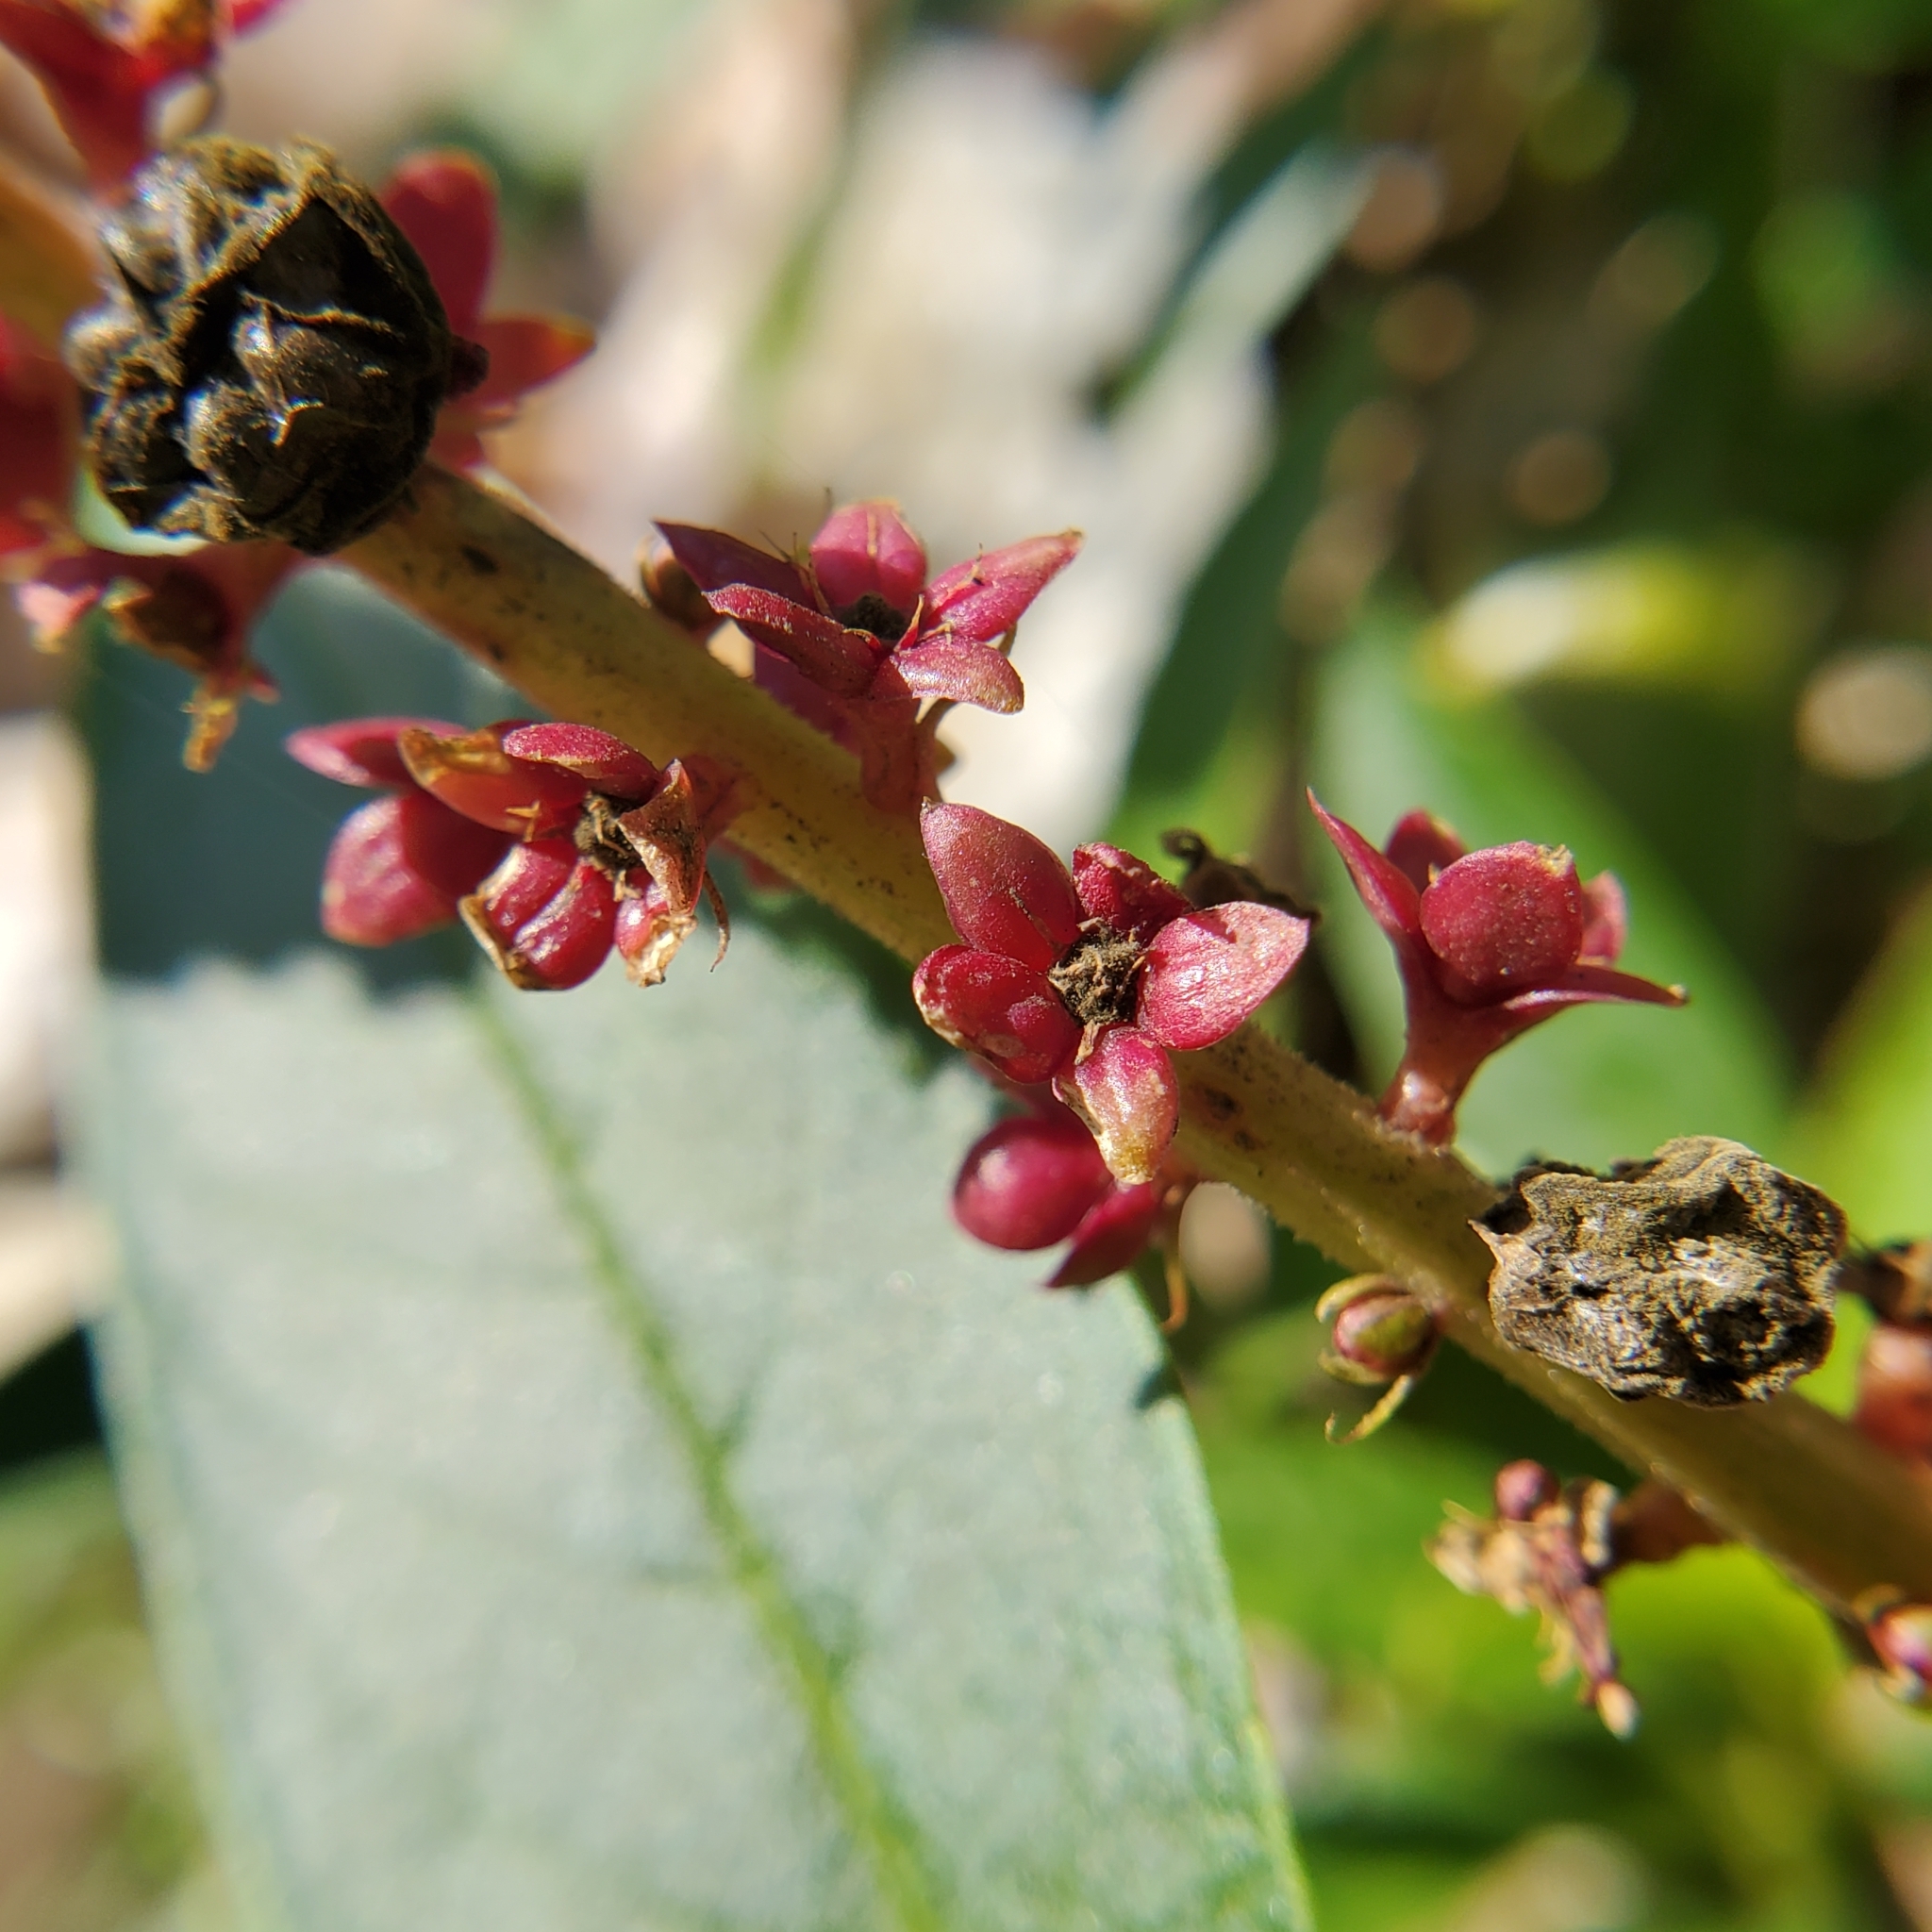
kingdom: Plantae
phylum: Tracheophyta
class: Magnoliopsida
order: Caryophyllales
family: Phytolaccaceae
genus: Phytolacca
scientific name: Phytolacca icosandra
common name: Button pokeweed
